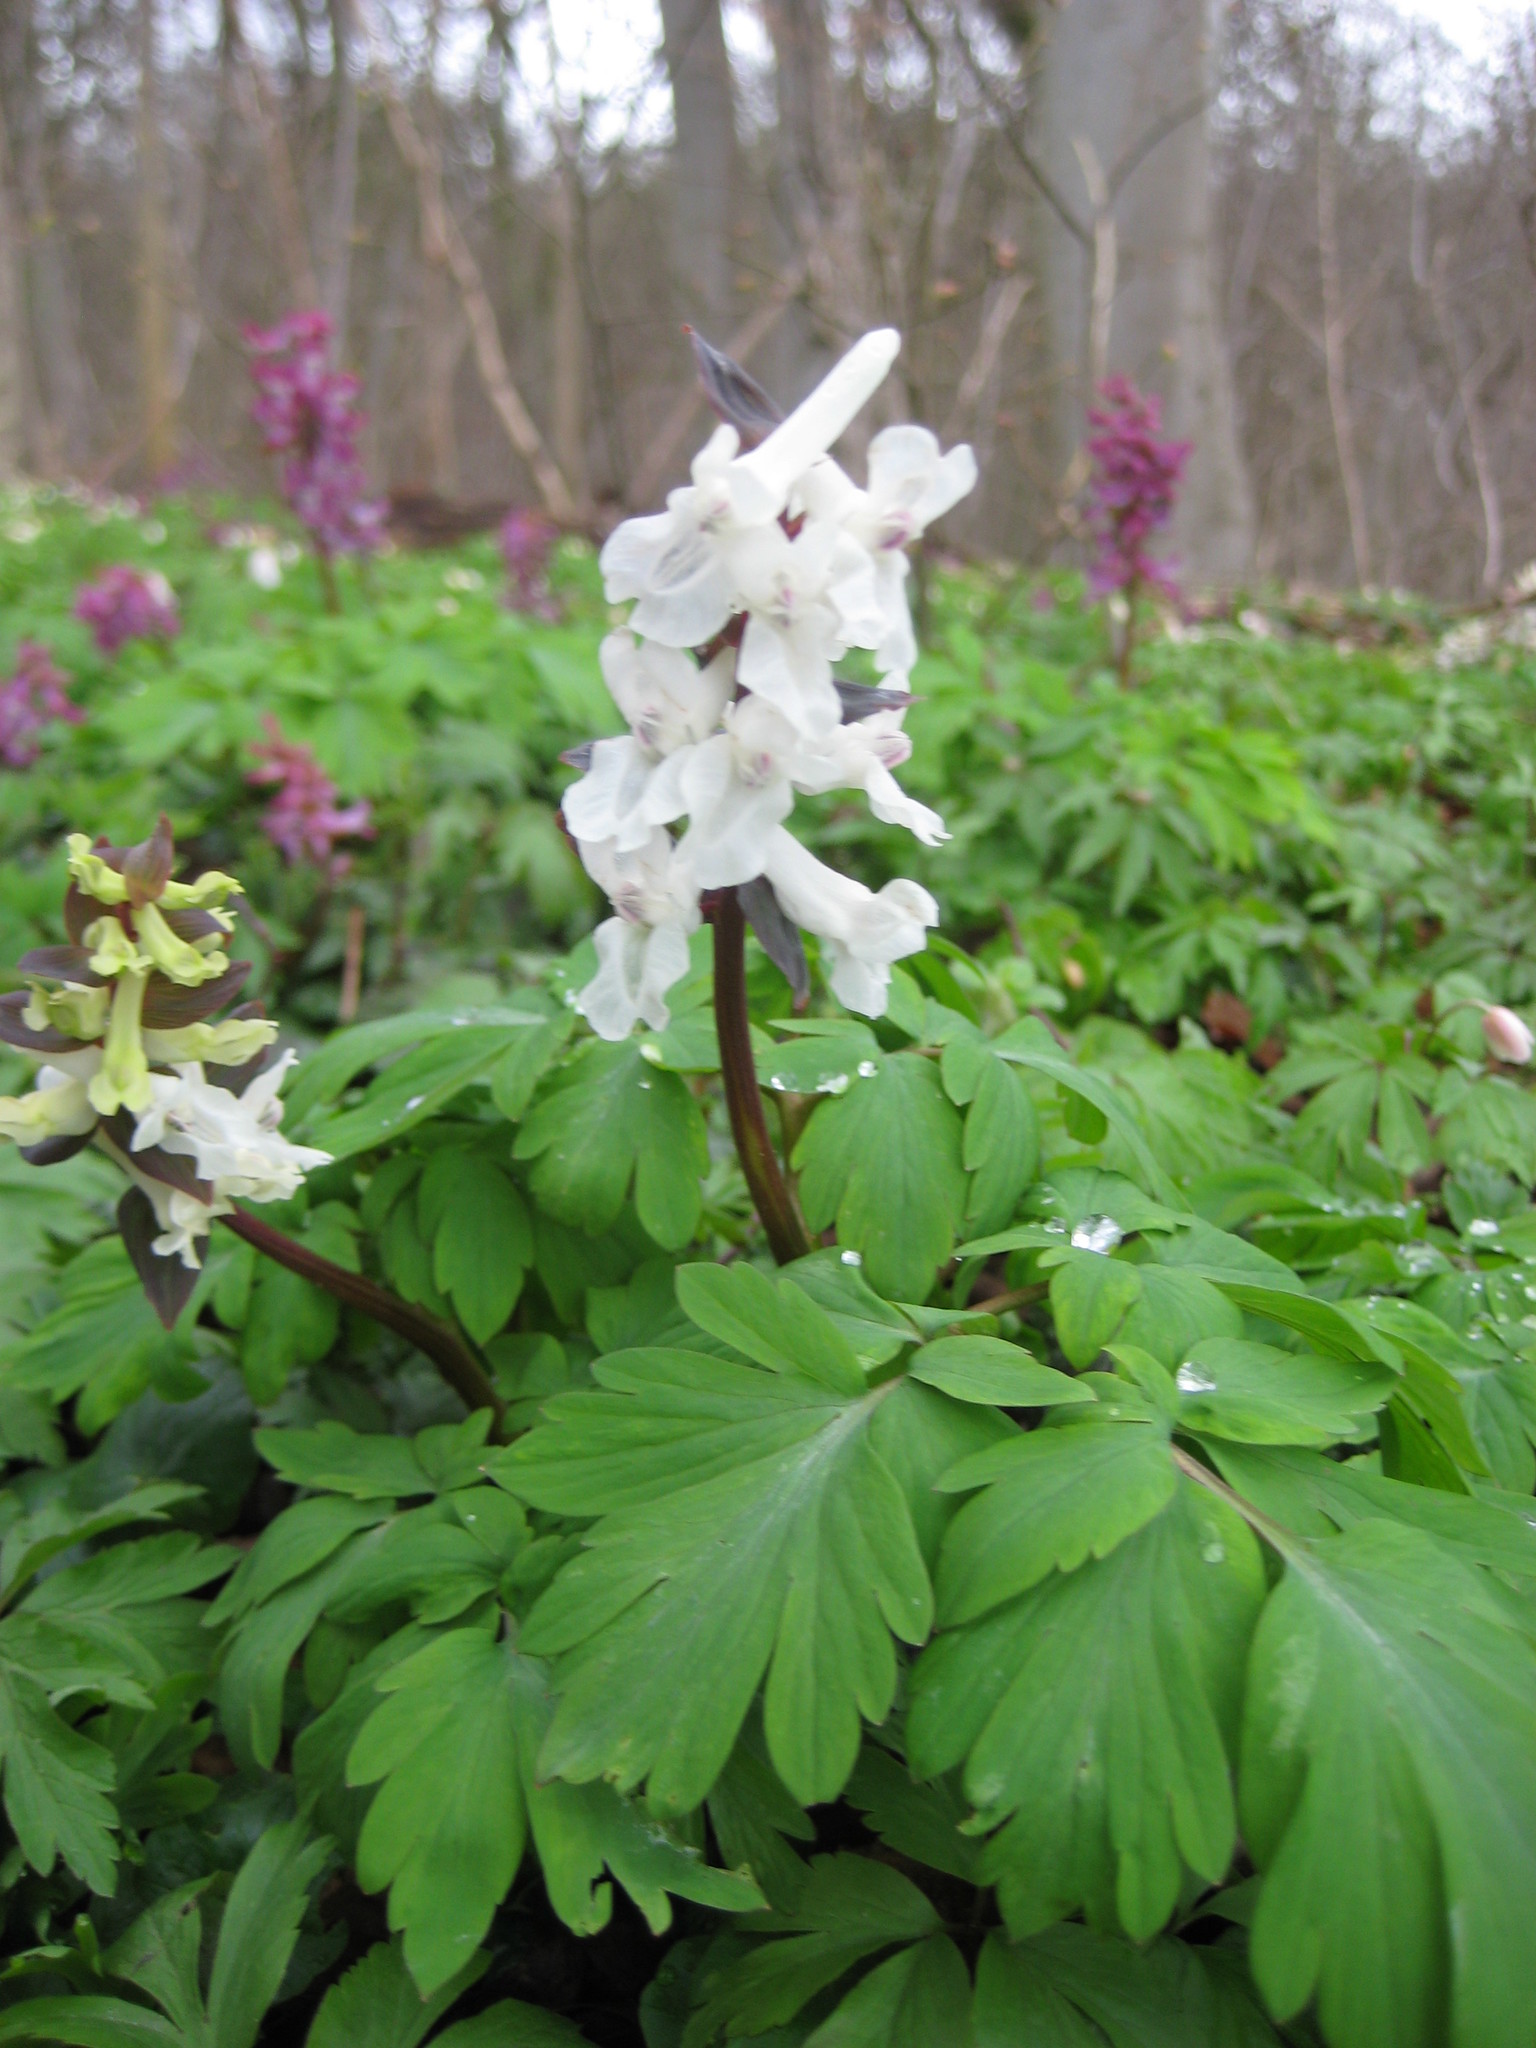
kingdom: Plantae
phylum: Tracheophyta
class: Magnoliopsida
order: Ranunculales
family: Papaveraceae
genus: Corydalis
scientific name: Corydalis cava
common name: Hollowroot
